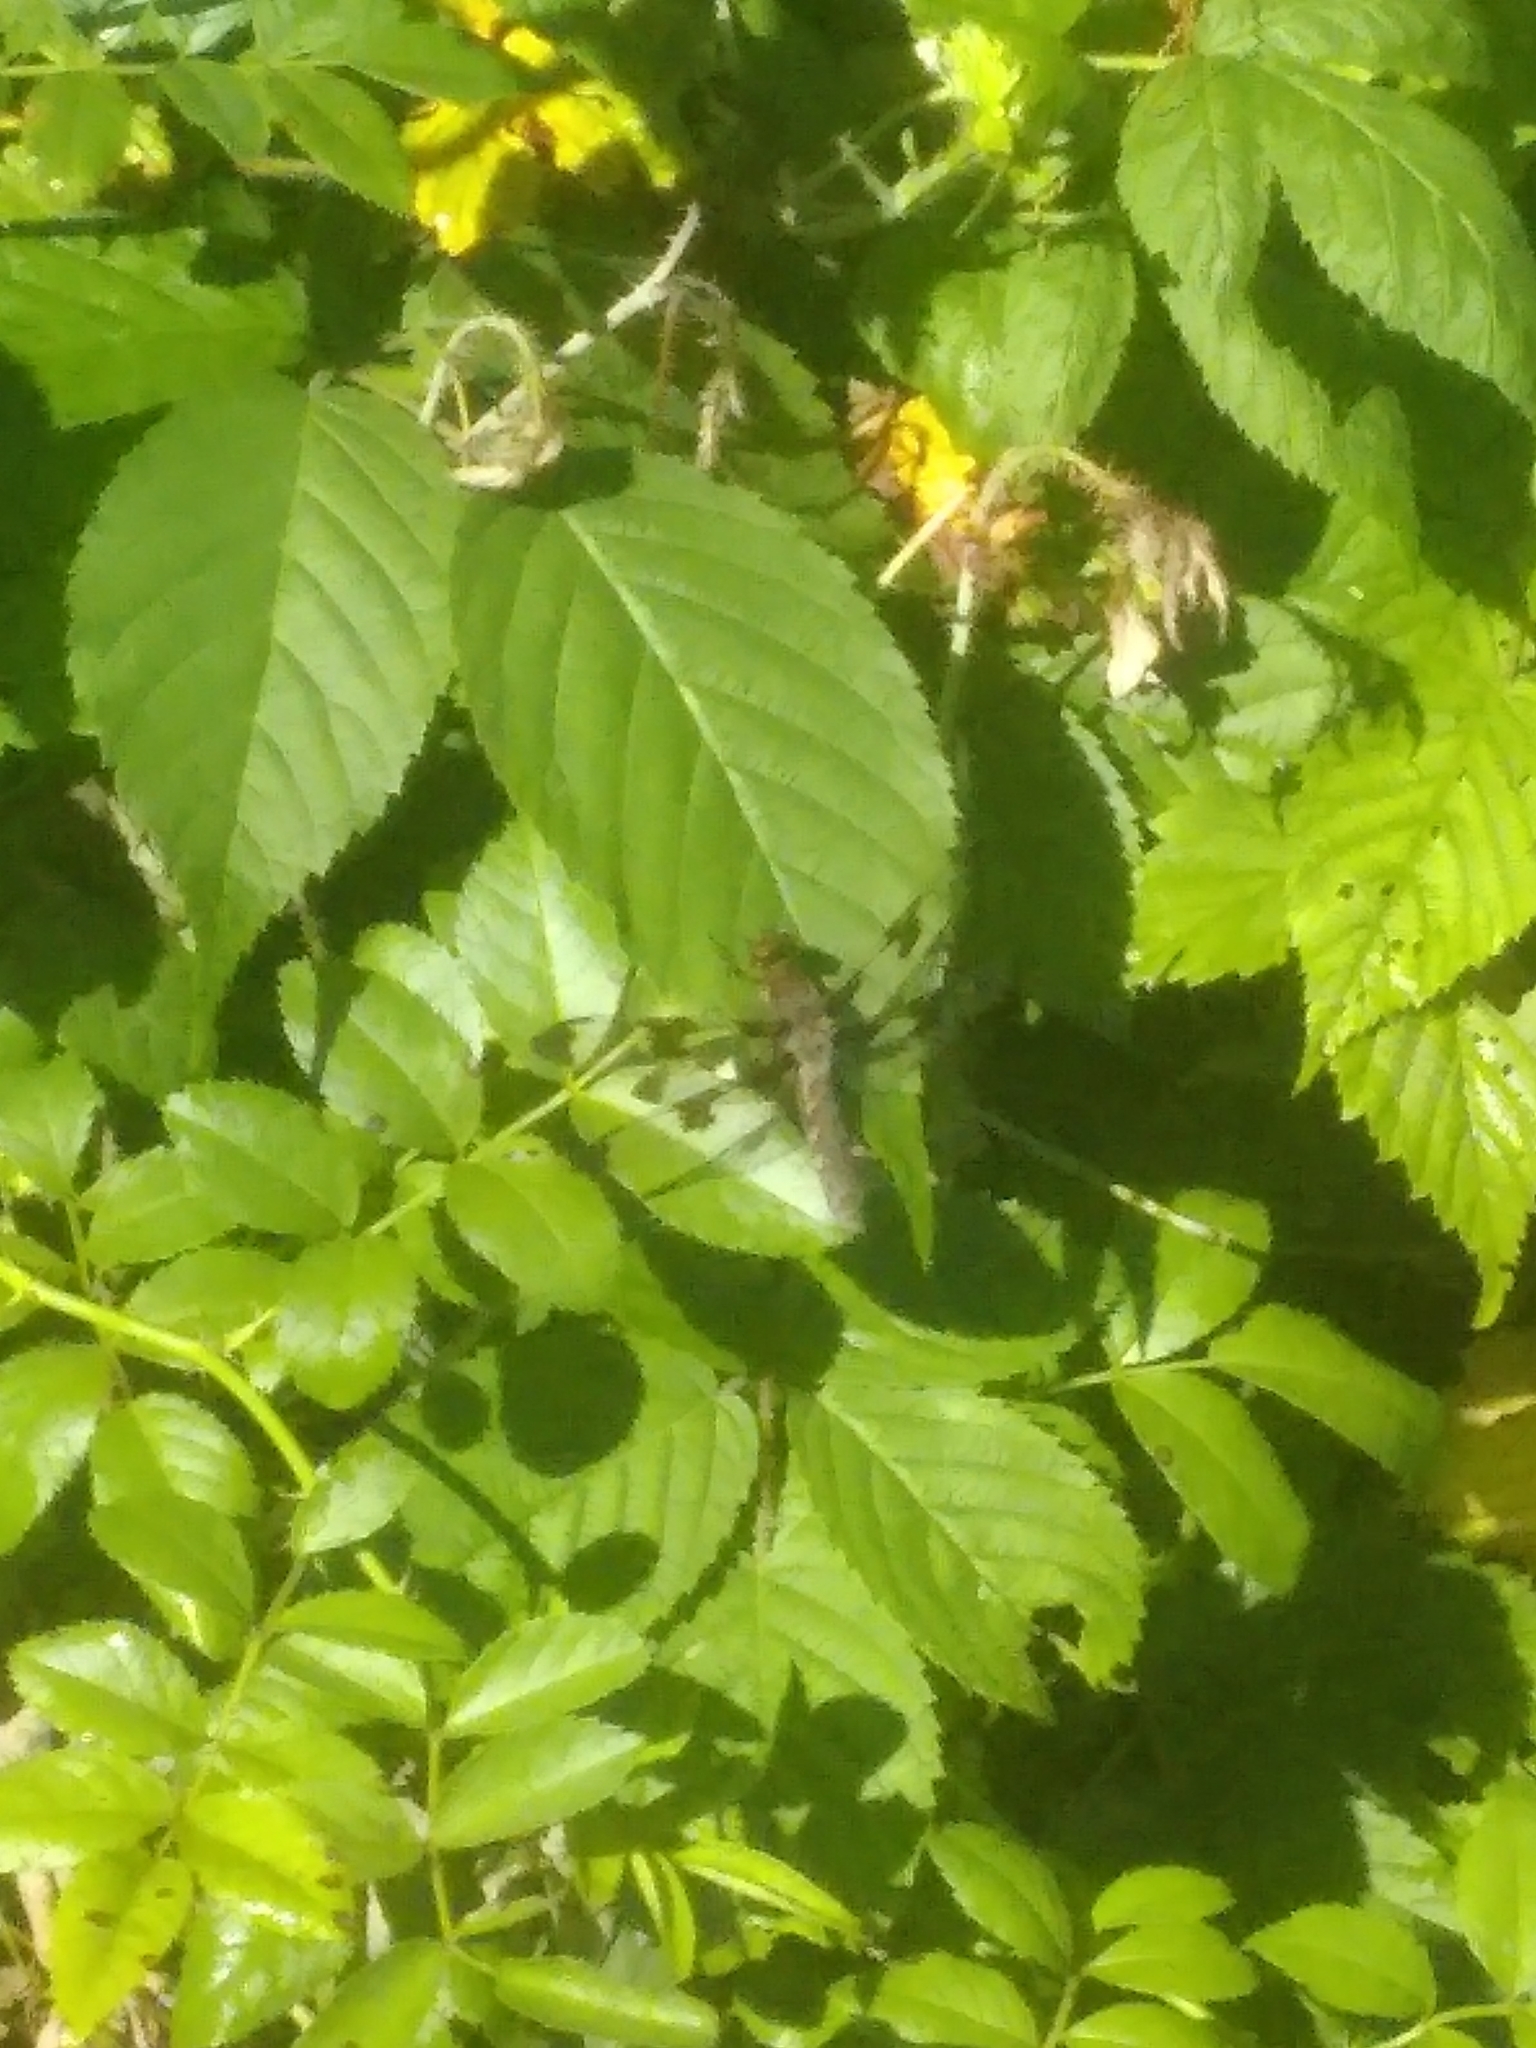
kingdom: Animalia
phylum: Arthropoda
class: Insecta
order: Odonata
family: Libellulidae
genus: Plathemis
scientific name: Plathemis lydia
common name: Common whitetail
